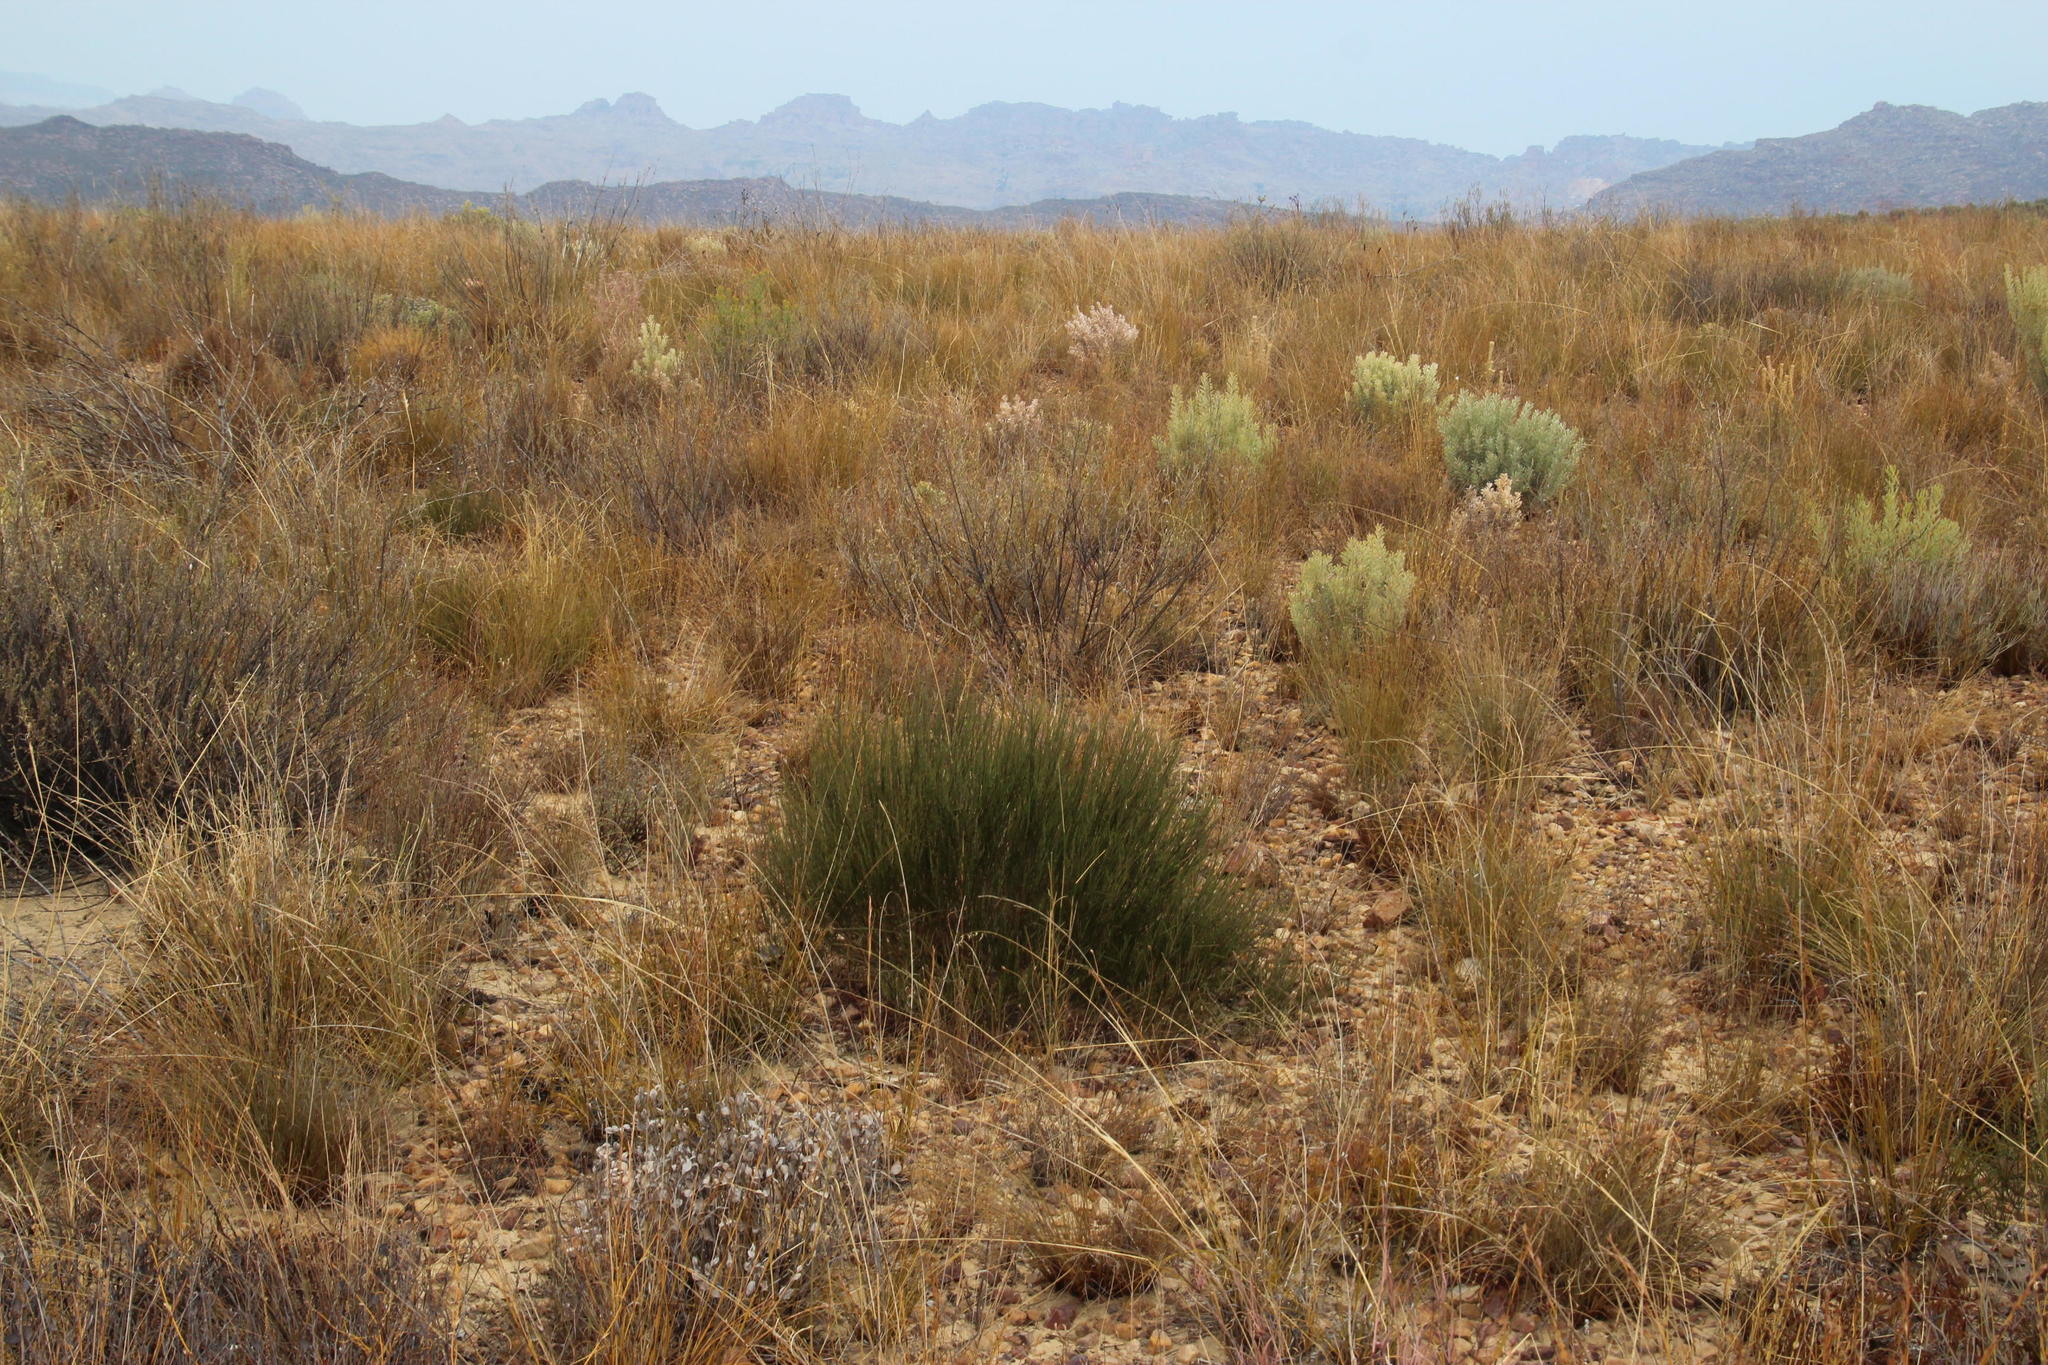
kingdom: Plantae
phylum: Tracheophyta
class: Magnoliopsida
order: Fabales
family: Fabaceae
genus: Aspalathus
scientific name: Aspalathus linearis
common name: Rooibos-tea
